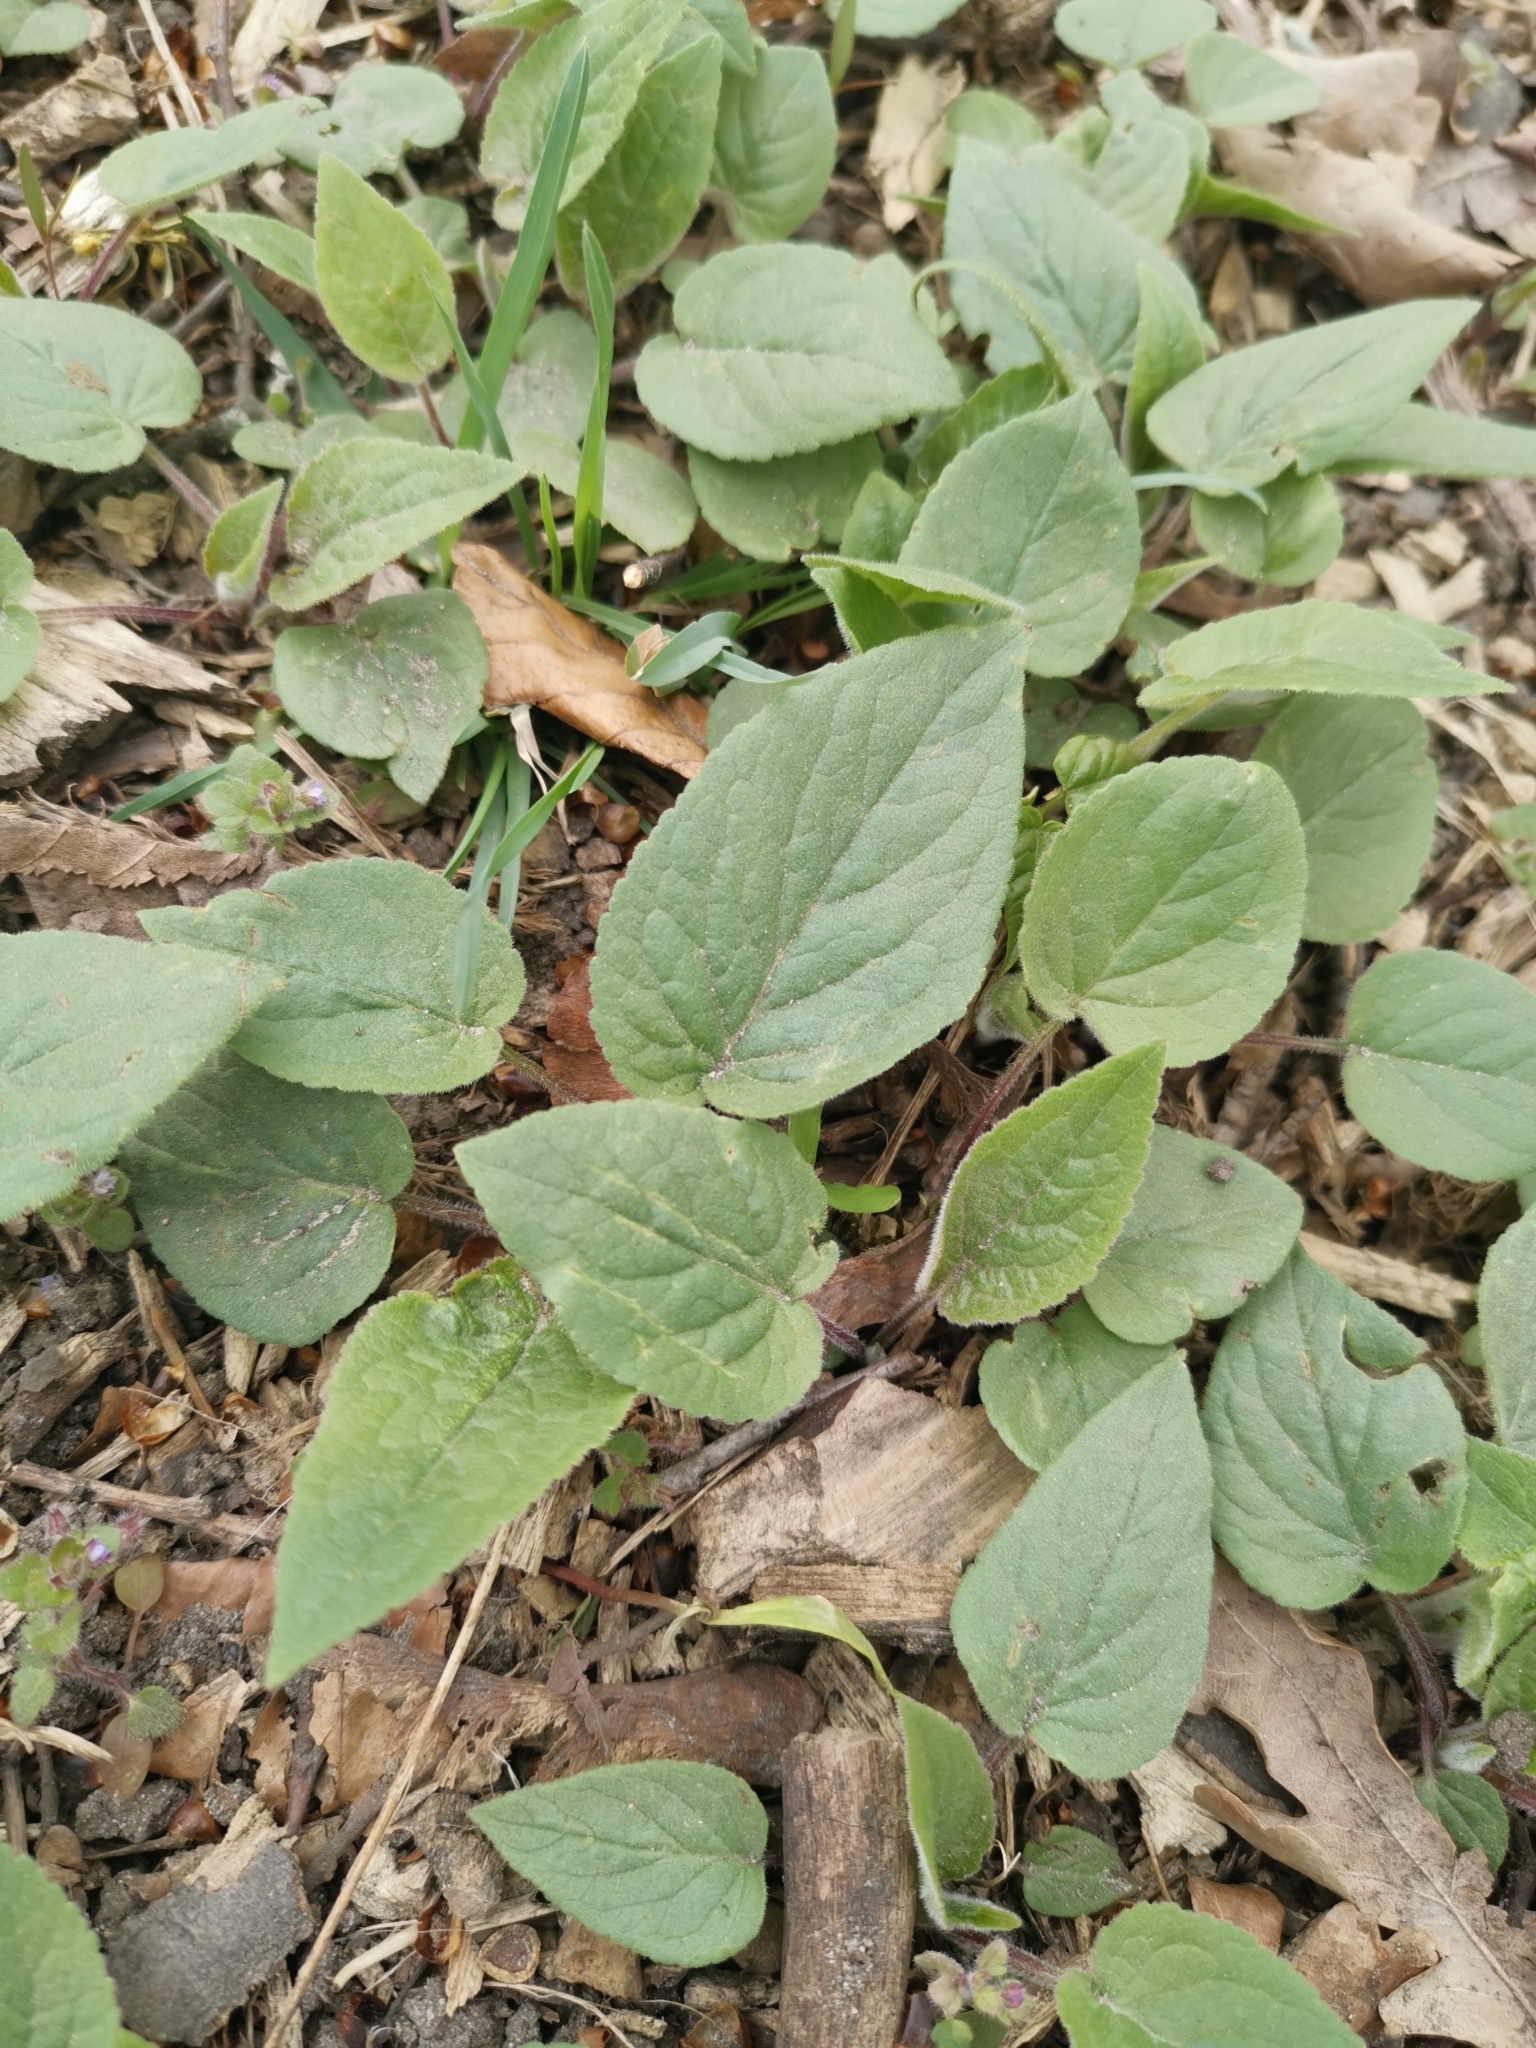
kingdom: Plantae
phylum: Tracheophyta
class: Magnoliopsida
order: Asterales
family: Campanulaceae
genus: Campanula
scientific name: Campanula rapunculoides
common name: Creeping bellflower
